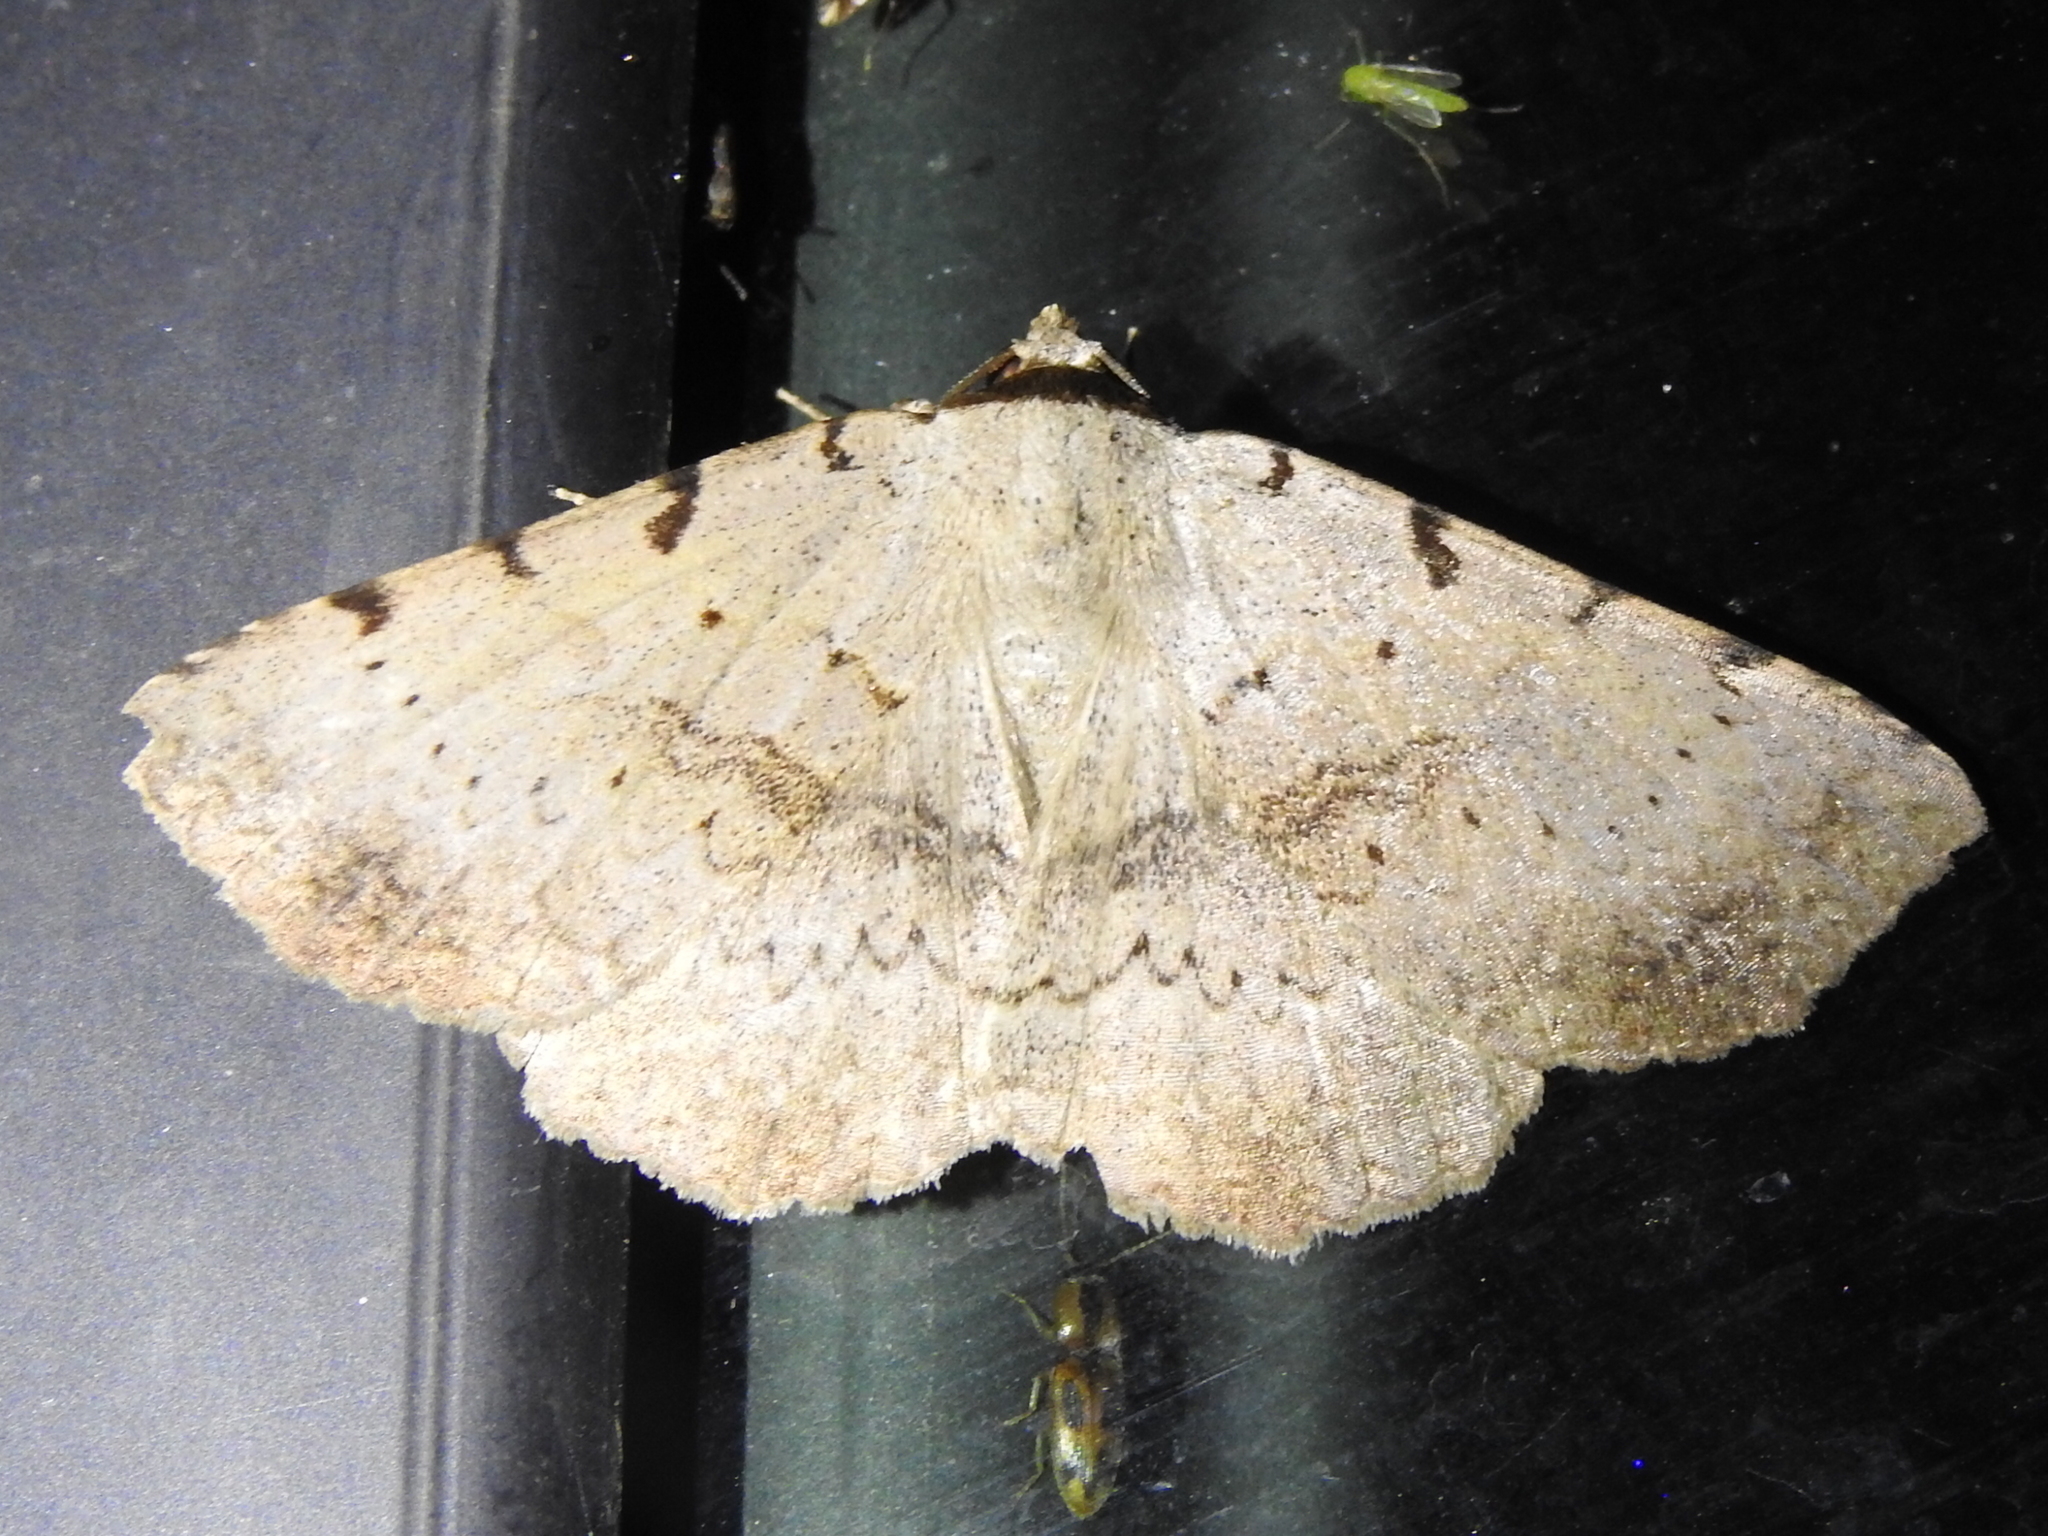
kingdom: Animalia
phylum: Arthropoda
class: Insecta
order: Lepidoptera
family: Erebidae
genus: Spiloloma
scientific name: Spiloloma lunilinea
